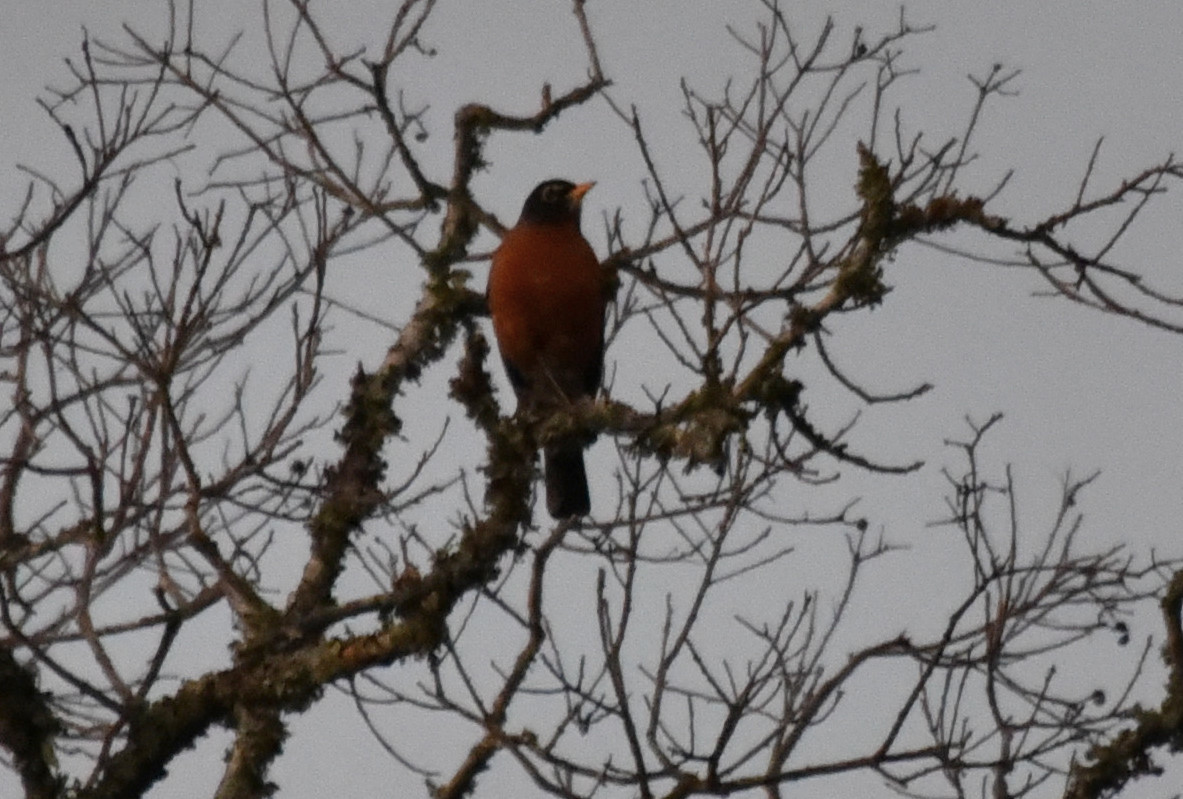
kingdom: Animalia
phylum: Chordata
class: Aves
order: Passeriformes
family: Turdidae
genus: Turdus
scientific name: Turdus migratorius
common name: American robin
